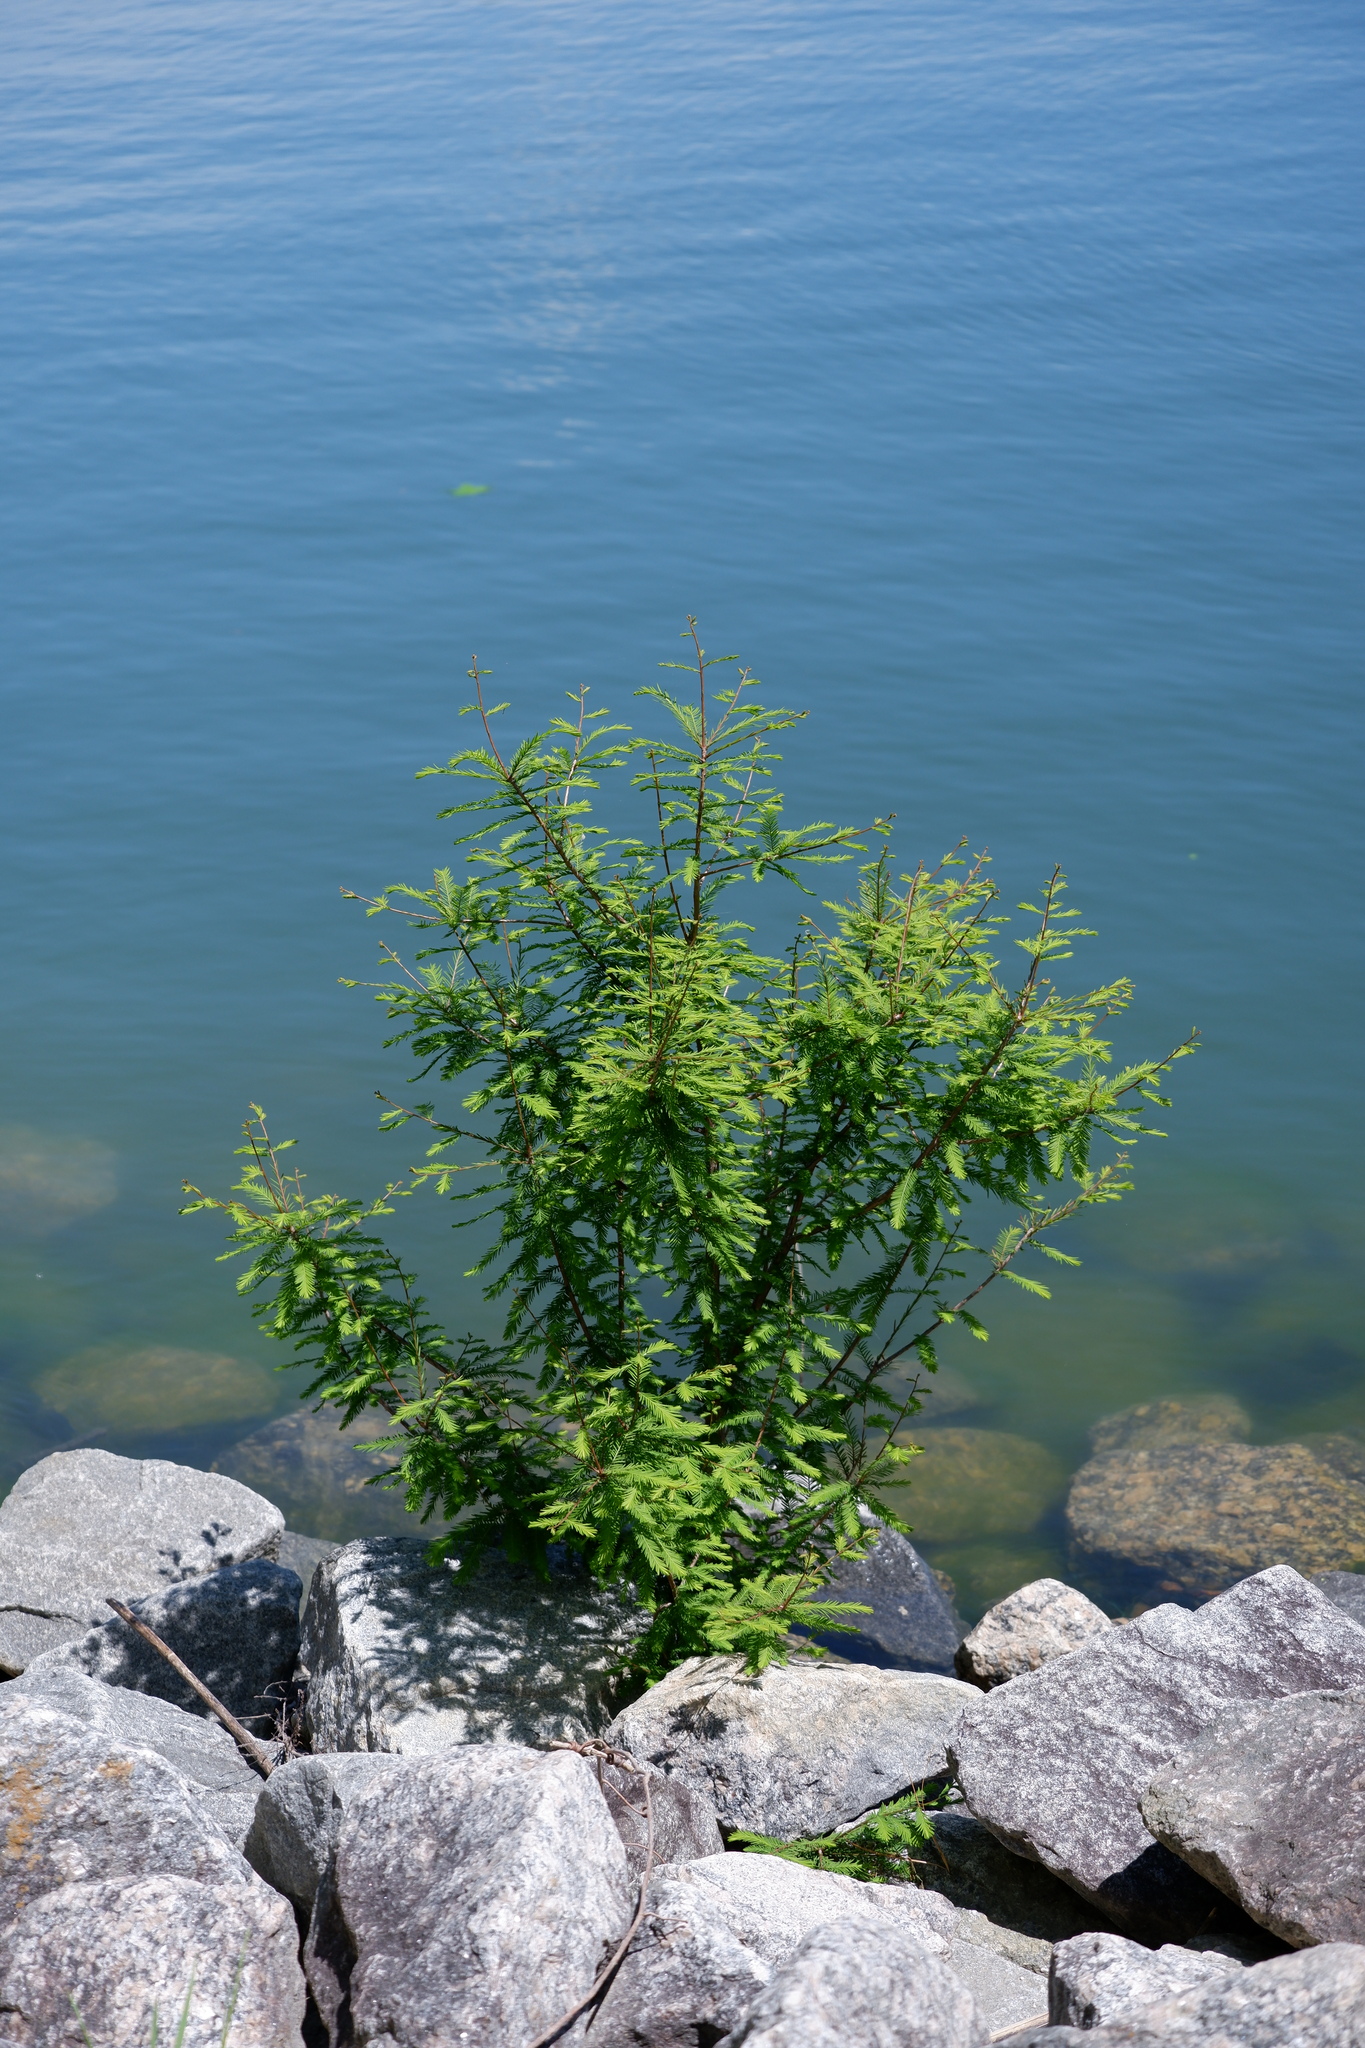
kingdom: Plantae
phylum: Tracheophyta
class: Pinopsida
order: Pinales
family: Cupressaceae
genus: Taxodium
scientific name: Taxodium distichum
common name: Bald cypress
